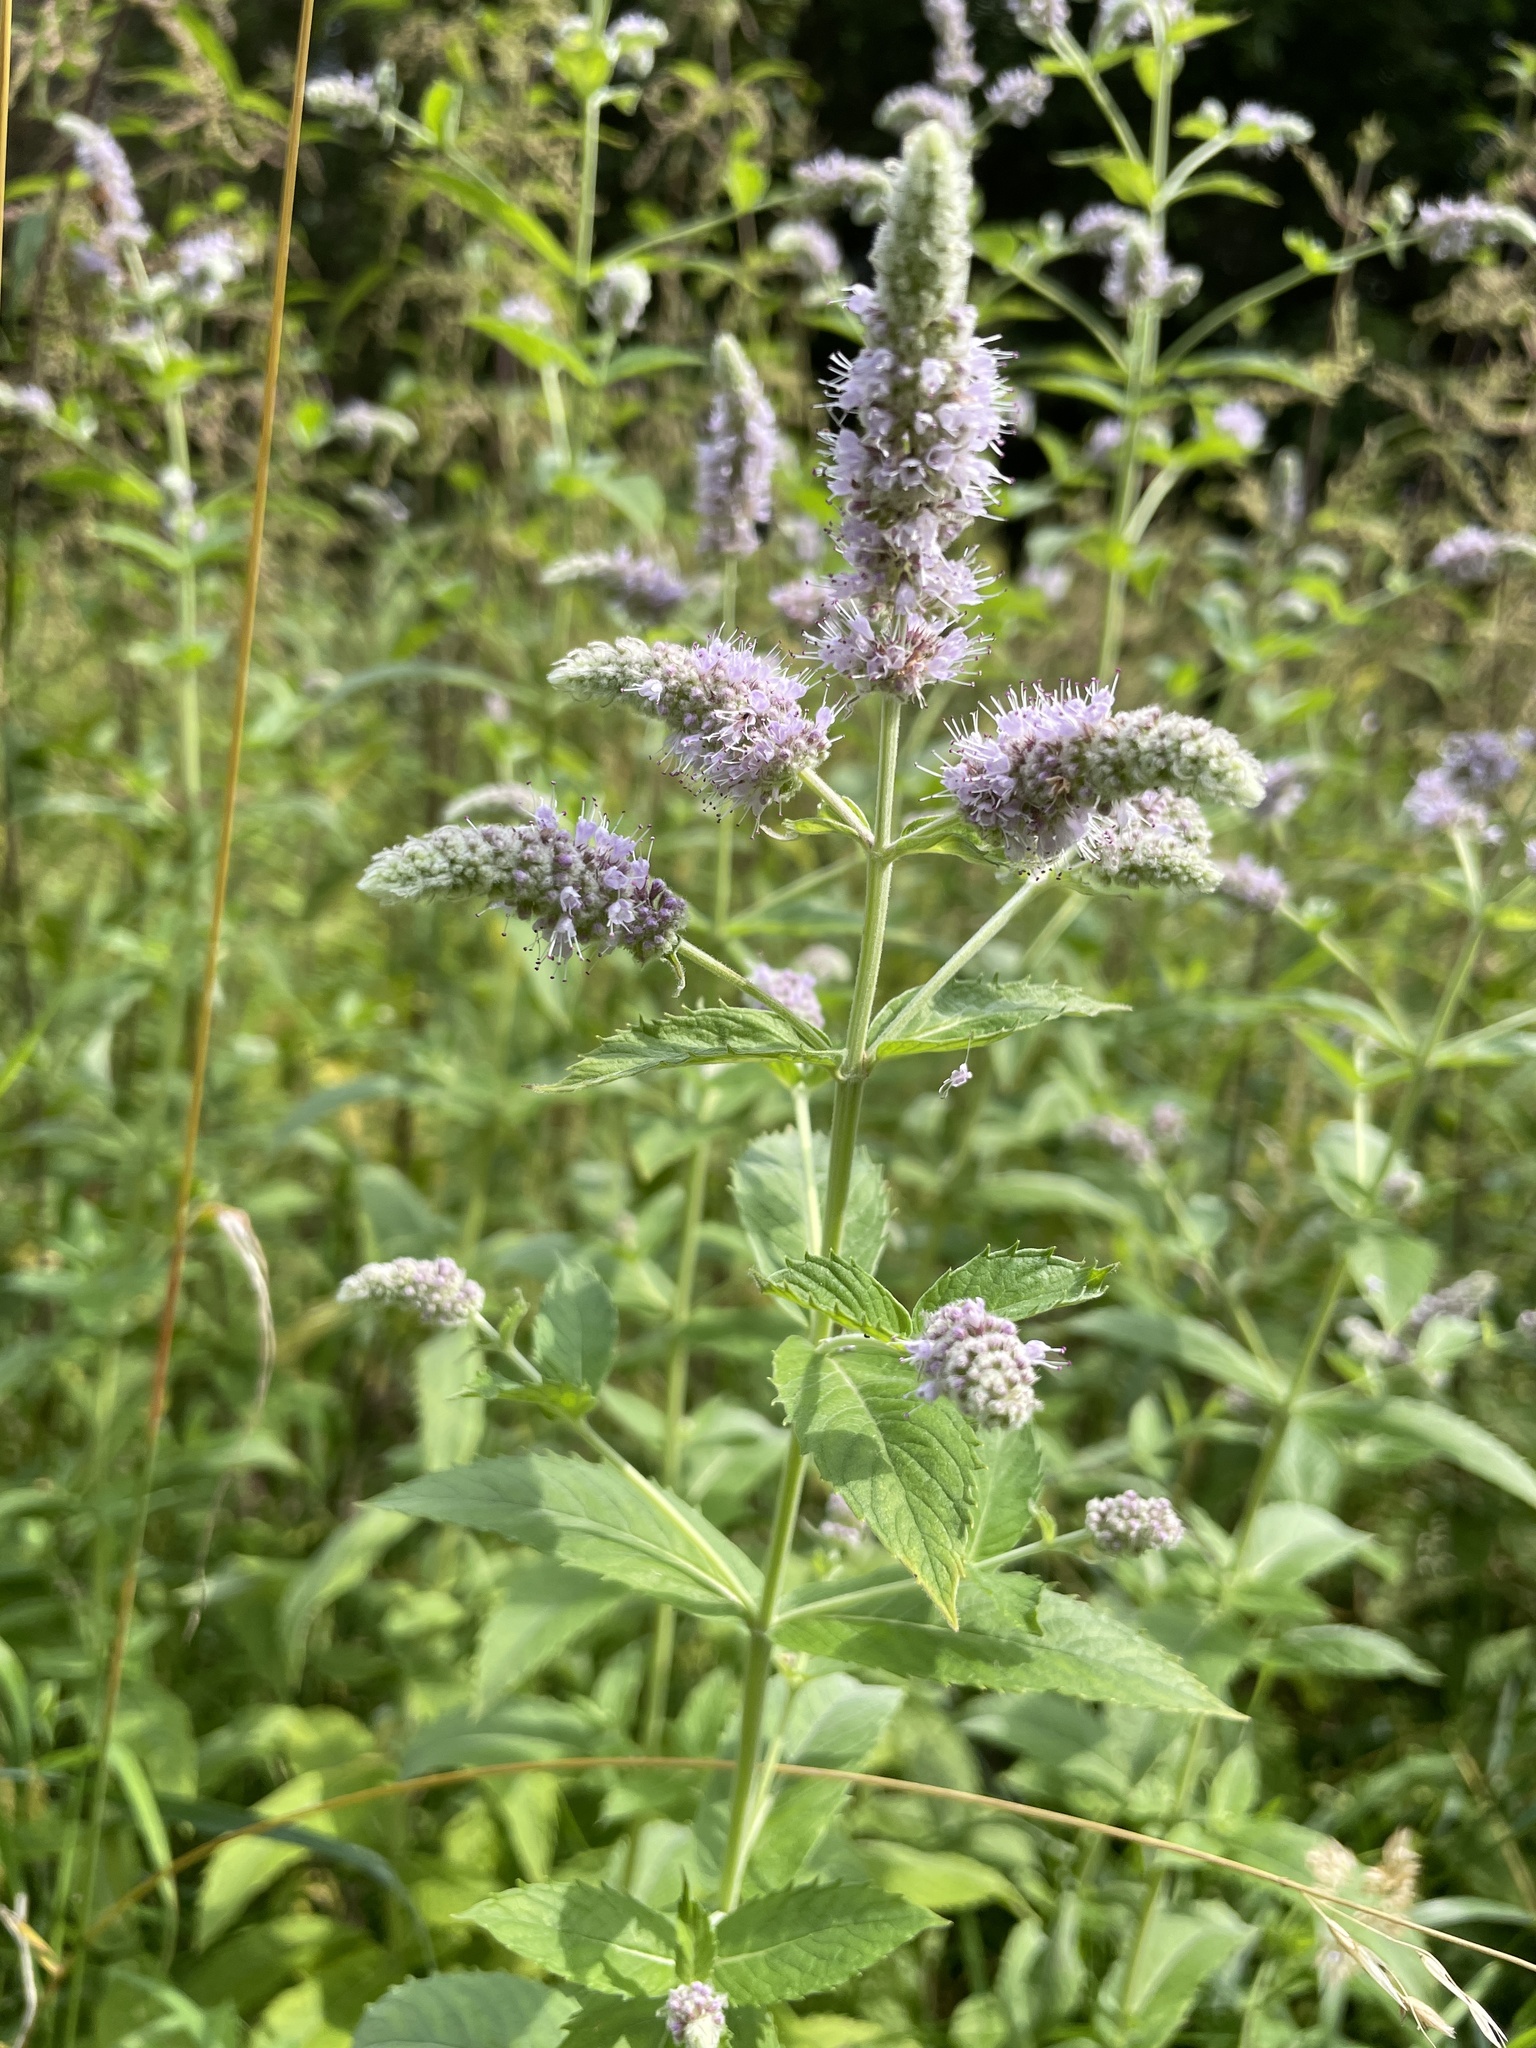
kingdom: Plantae
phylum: Tracheophyta
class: Magnoliopsida
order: Lamiales
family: Lamiaceae
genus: Mentha
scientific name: Mentha longifolia
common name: Horse mint
